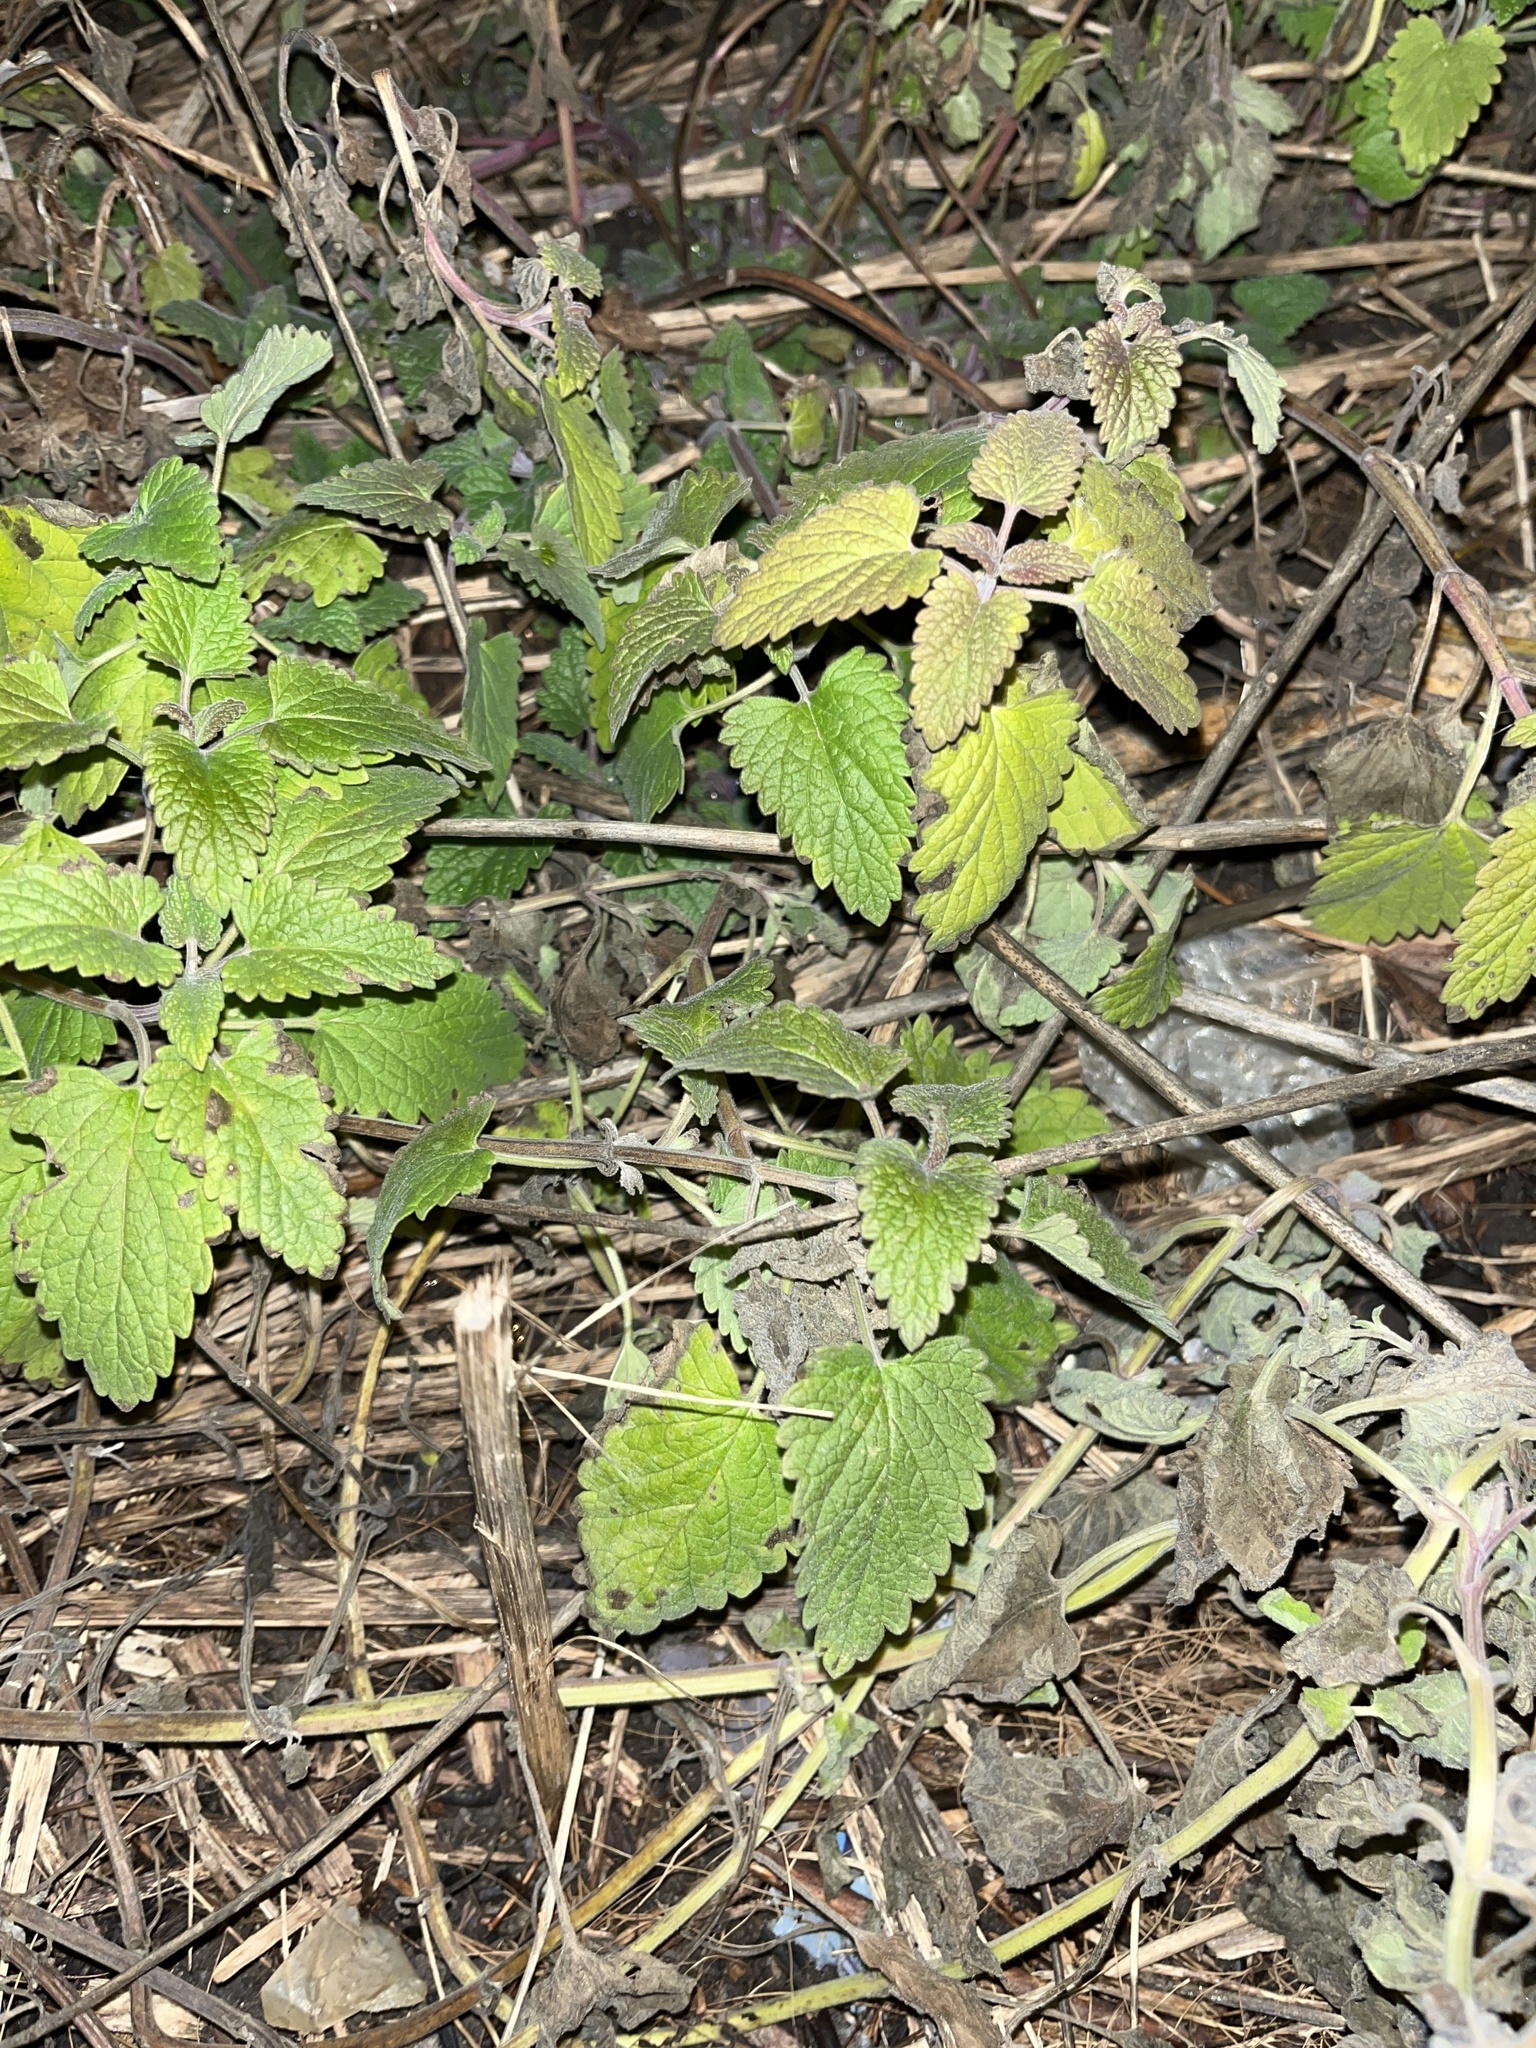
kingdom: Plantae
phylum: Tracheophyta
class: Magnoliopsida
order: Lamiales
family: Lamiaceae
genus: Nepeta
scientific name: Nepeta cataria
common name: Catnip
